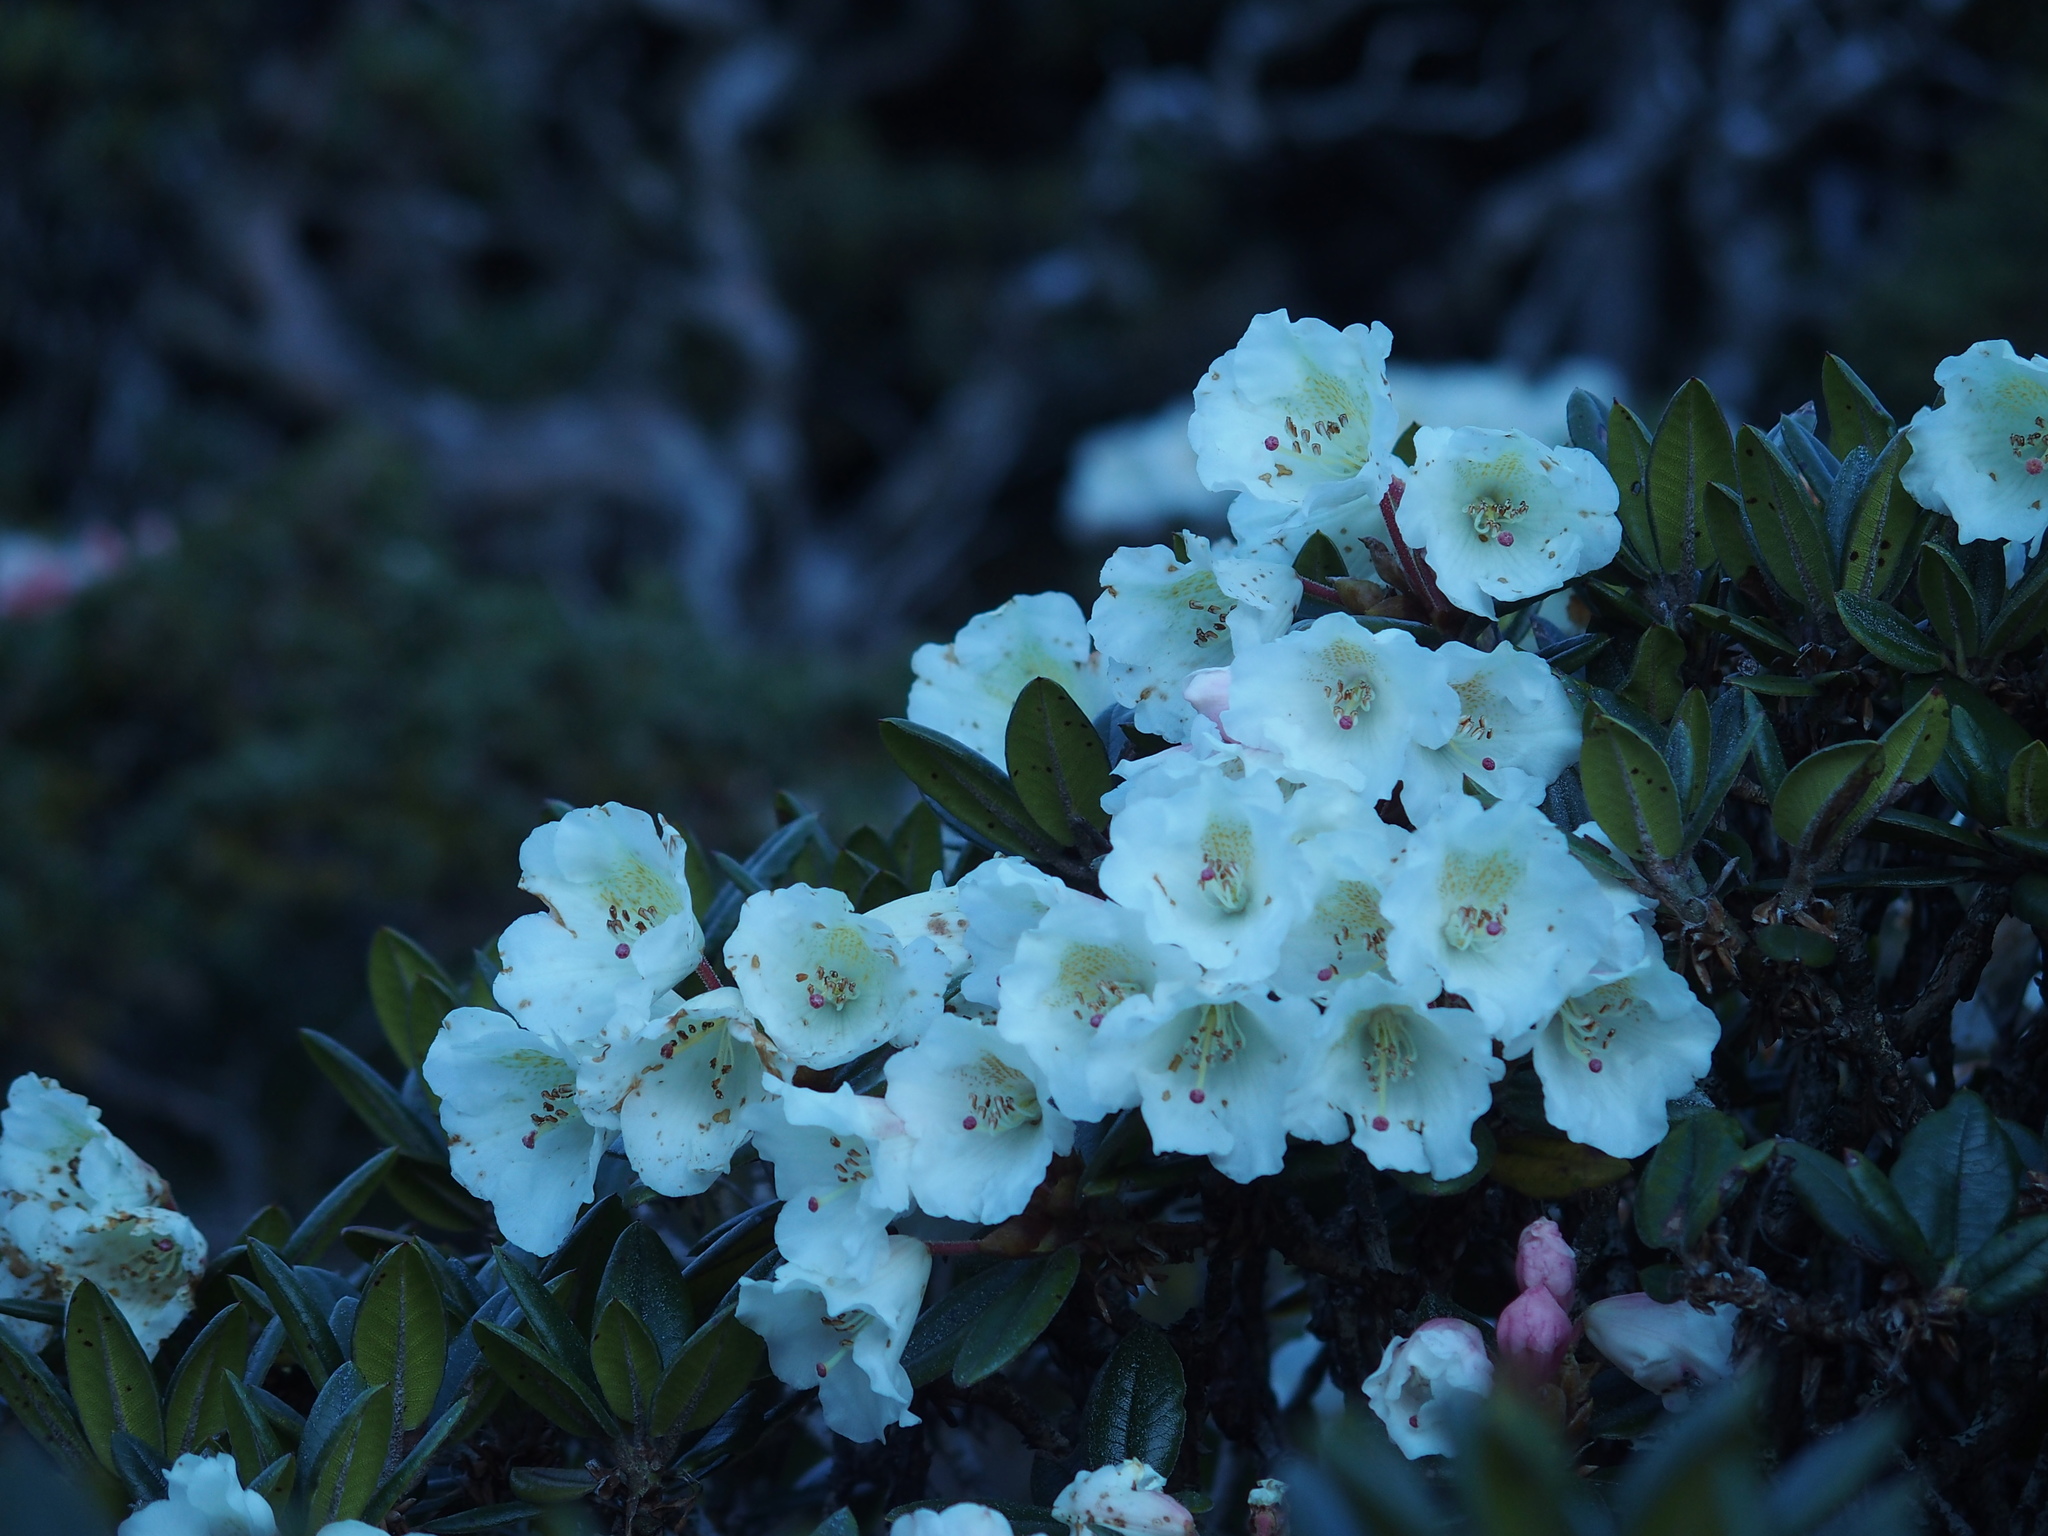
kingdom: Plantae
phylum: Tracheophyta
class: Magnoliopsida
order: Ericales
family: Ericaceae
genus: Rhododendron
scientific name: Rhododendron pseudochrysanthum
